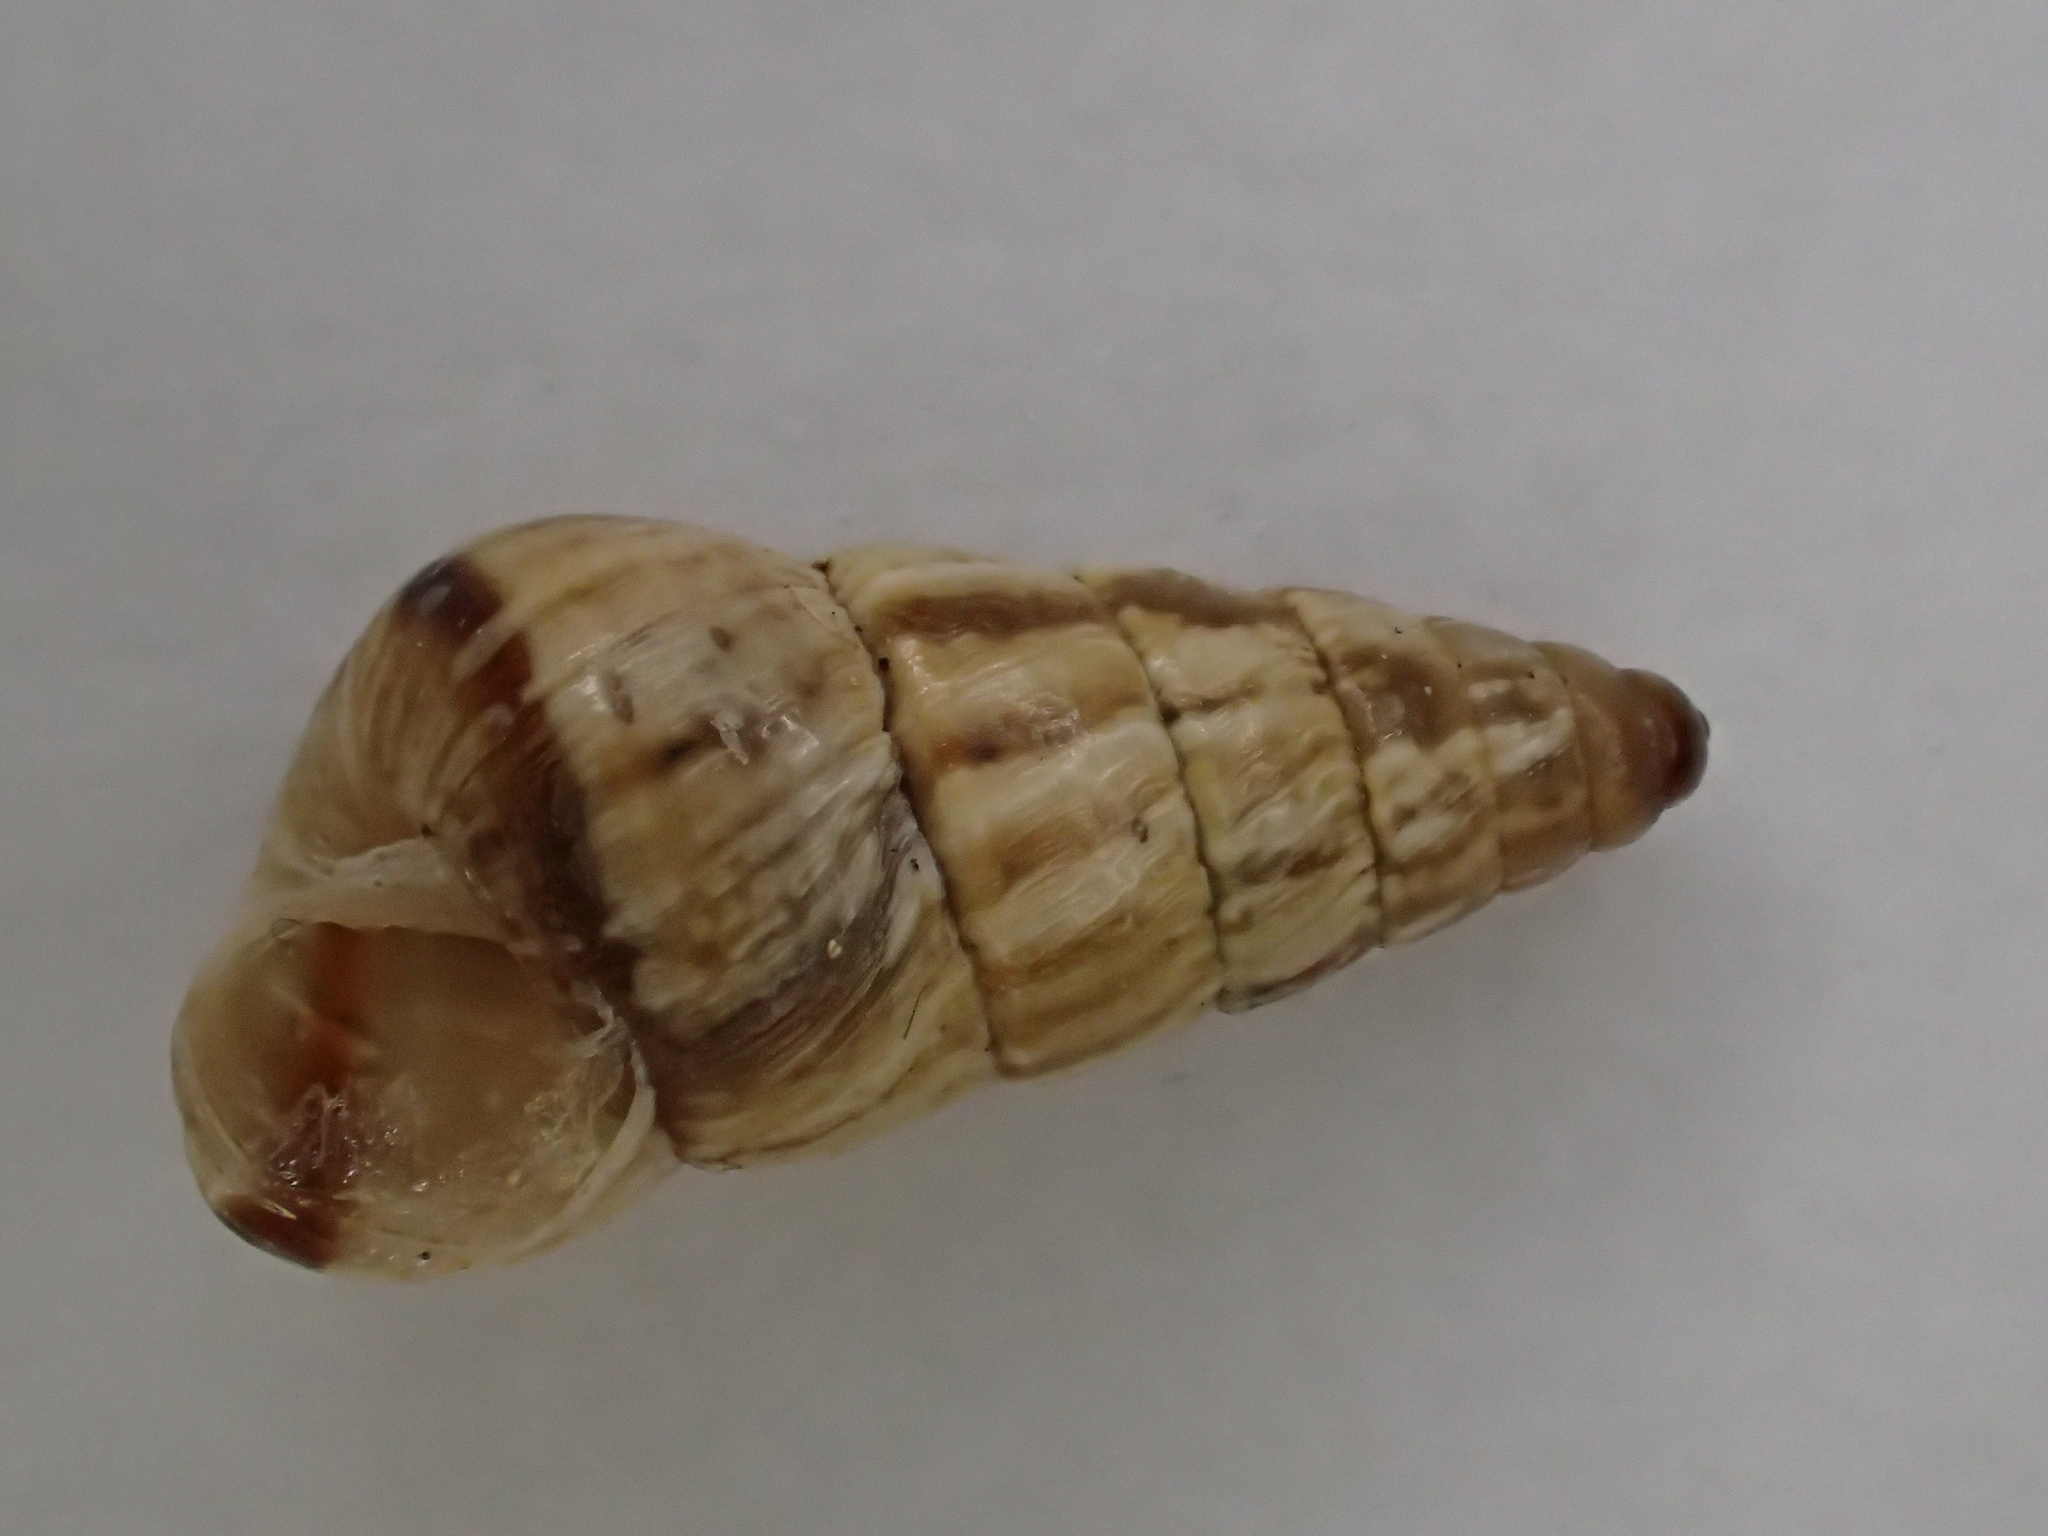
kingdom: Animalia
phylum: Mollusca
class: Gastropoda
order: Stylommatophora
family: Geomitridae
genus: Cochlicella
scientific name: Cochlicella acuta
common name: Pointed snail
